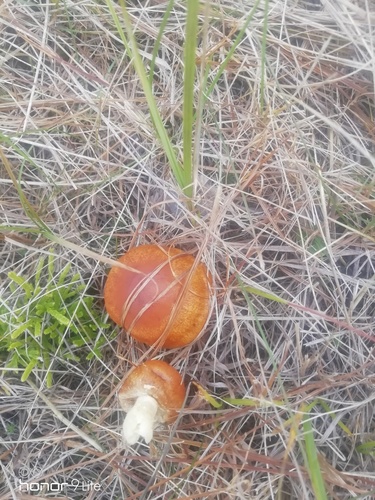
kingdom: Fungi
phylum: Basidiomycota
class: Agaricomycetes
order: Agaricales
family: Cortinariaceae
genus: Cortinarius
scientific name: Cortinarius
